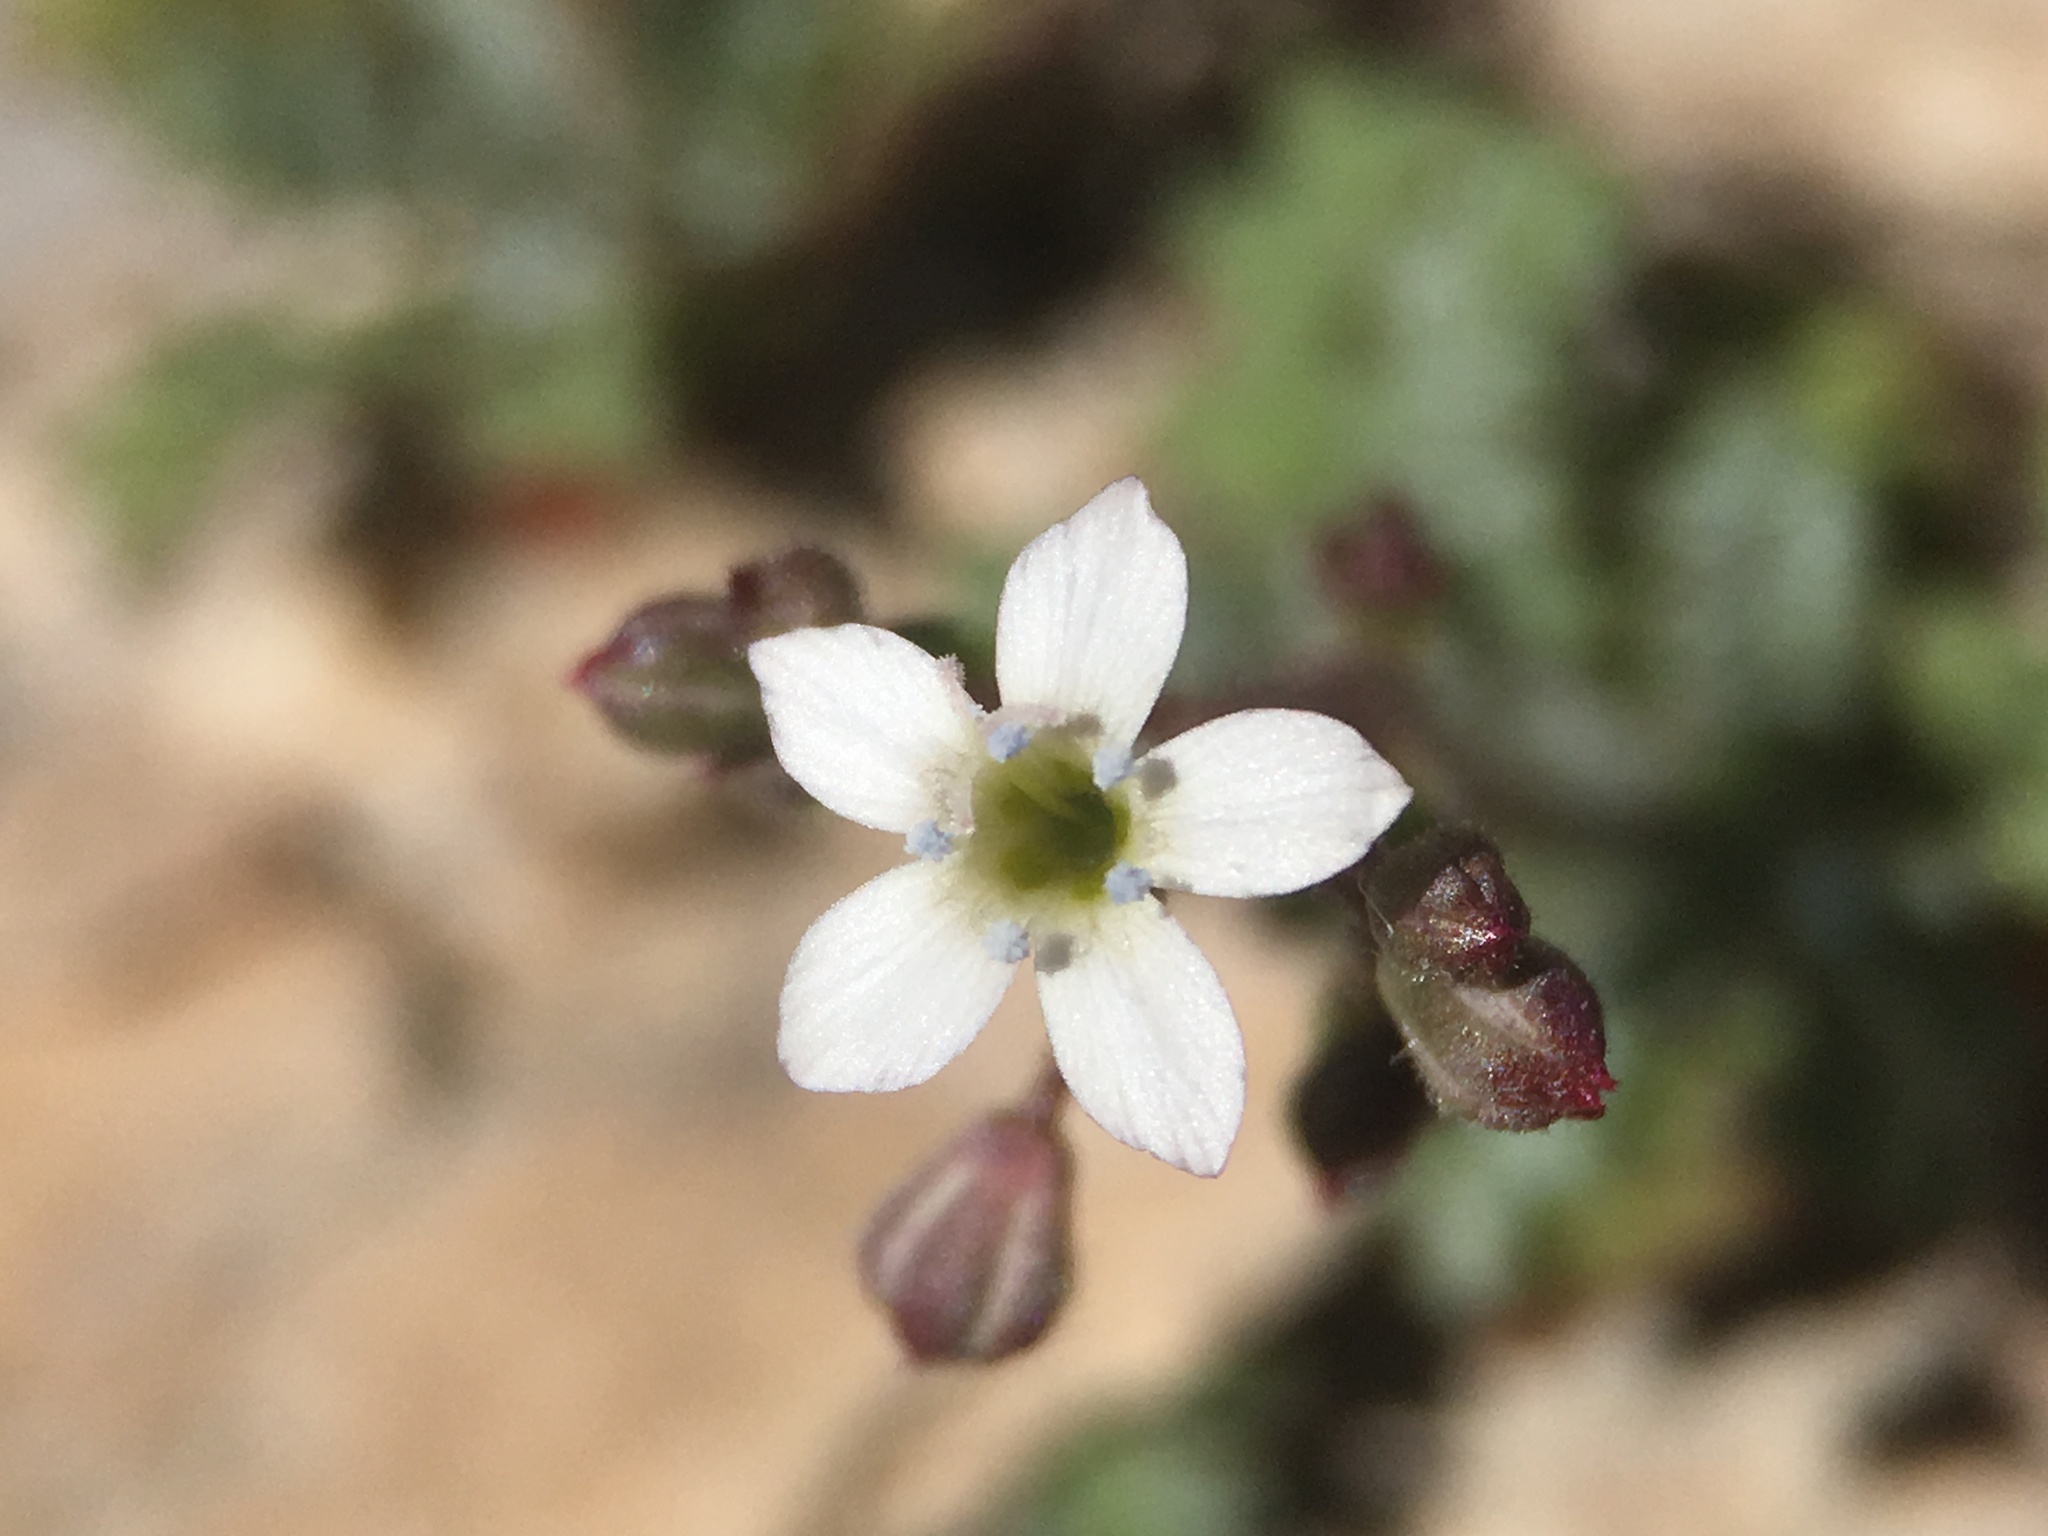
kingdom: Plantae
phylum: Tracheophyta
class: Magnoliopsida
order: Ericales
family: Polemoniaceae
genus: Gilia
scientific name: Gilia clokeyi
